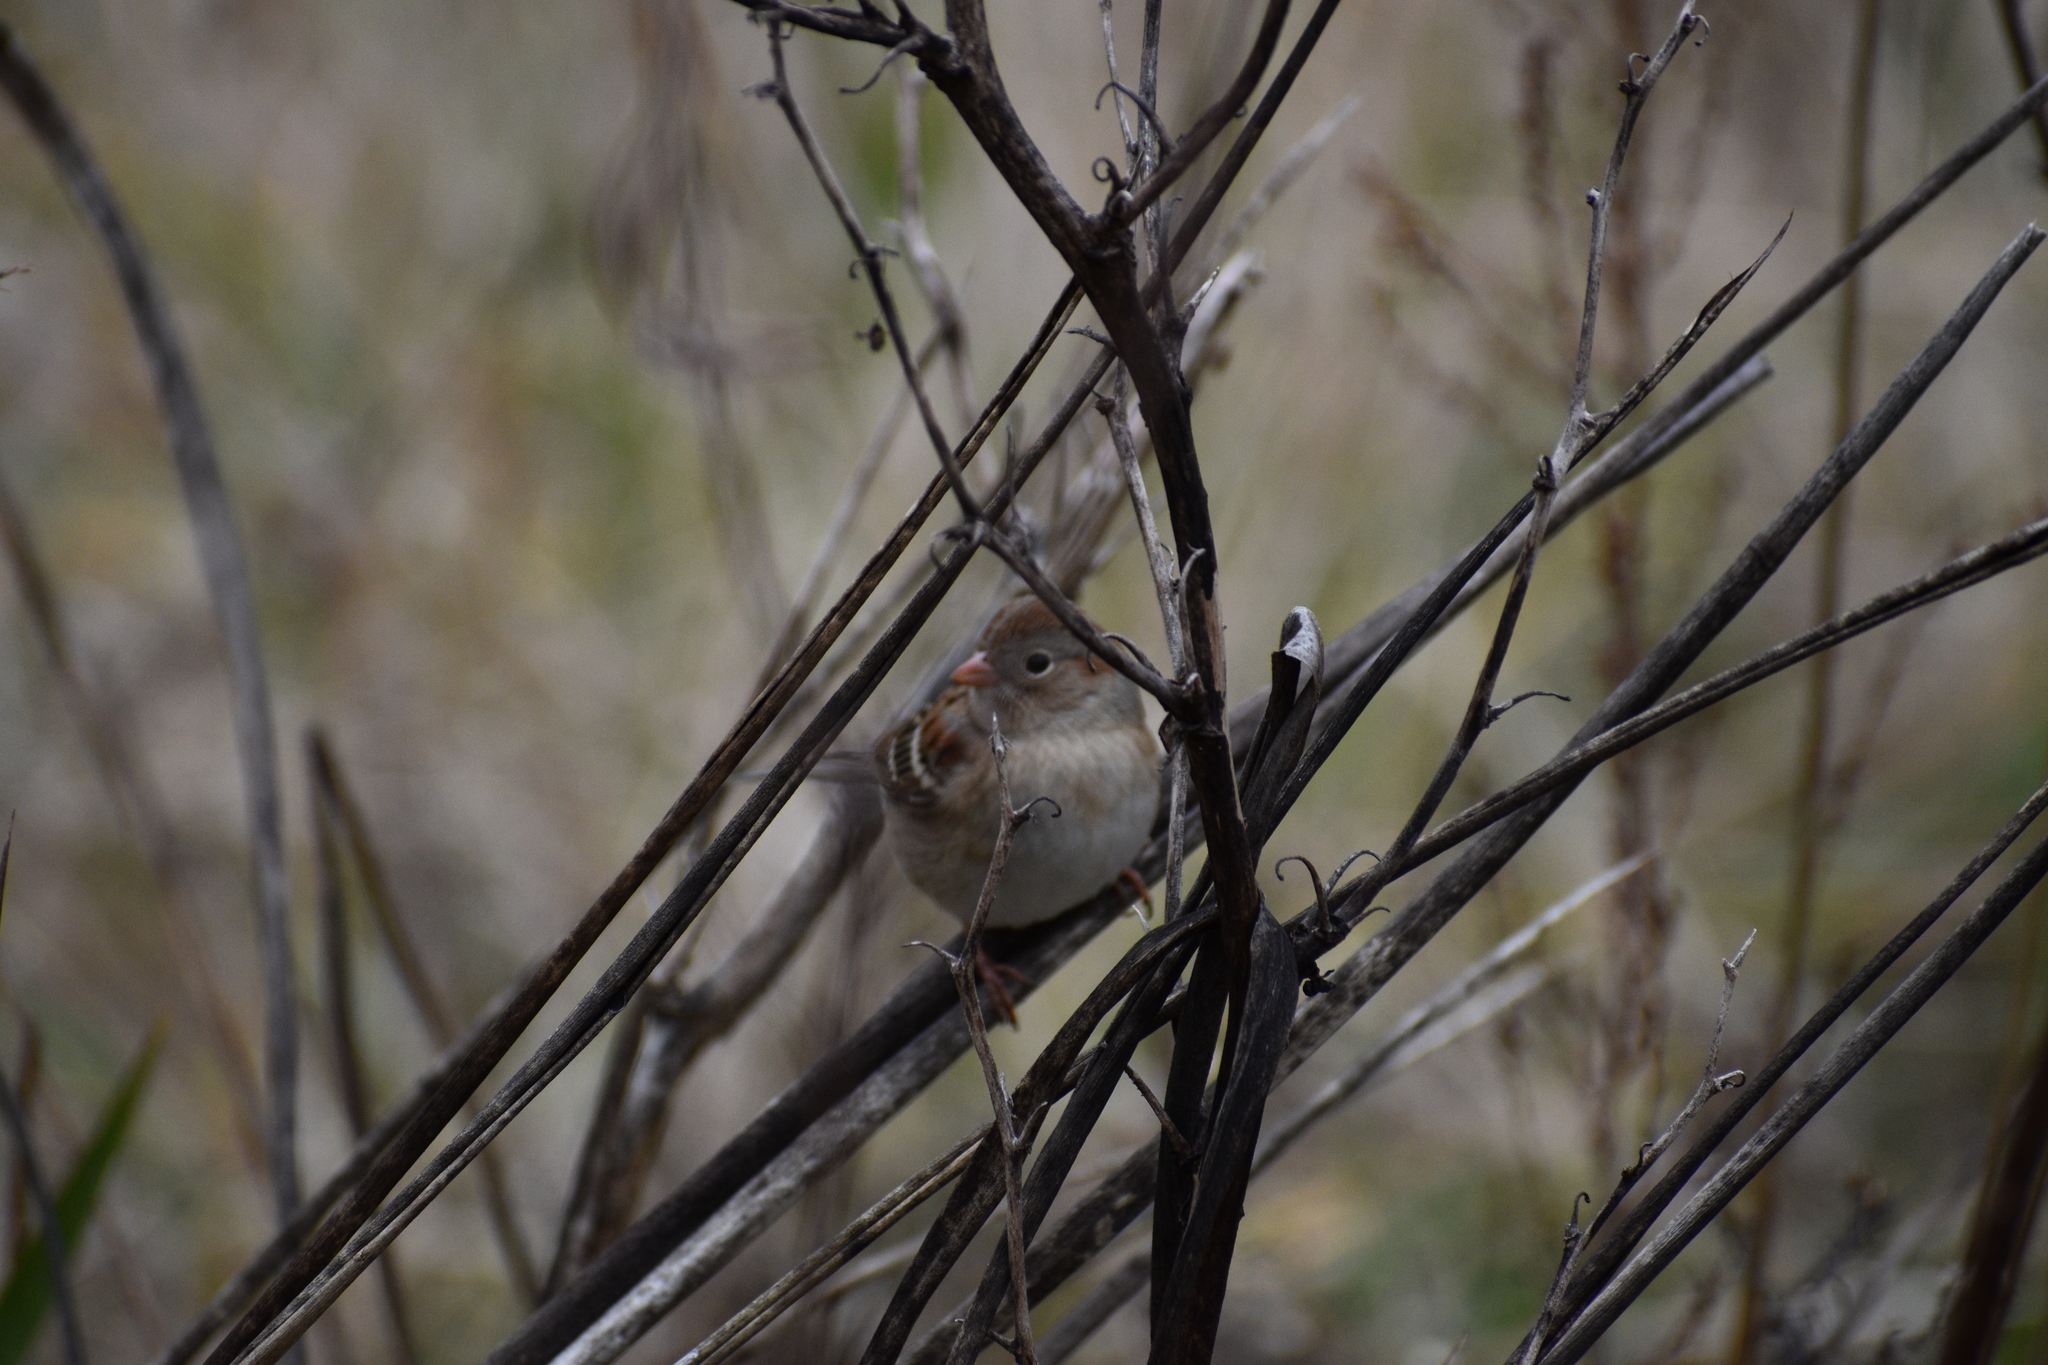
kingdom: Animalia
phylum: Chordata
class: Aves
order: Passeriformes
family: Passerellidae
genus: Spizella
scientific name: Spizella pusilla
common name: Field sparrow
